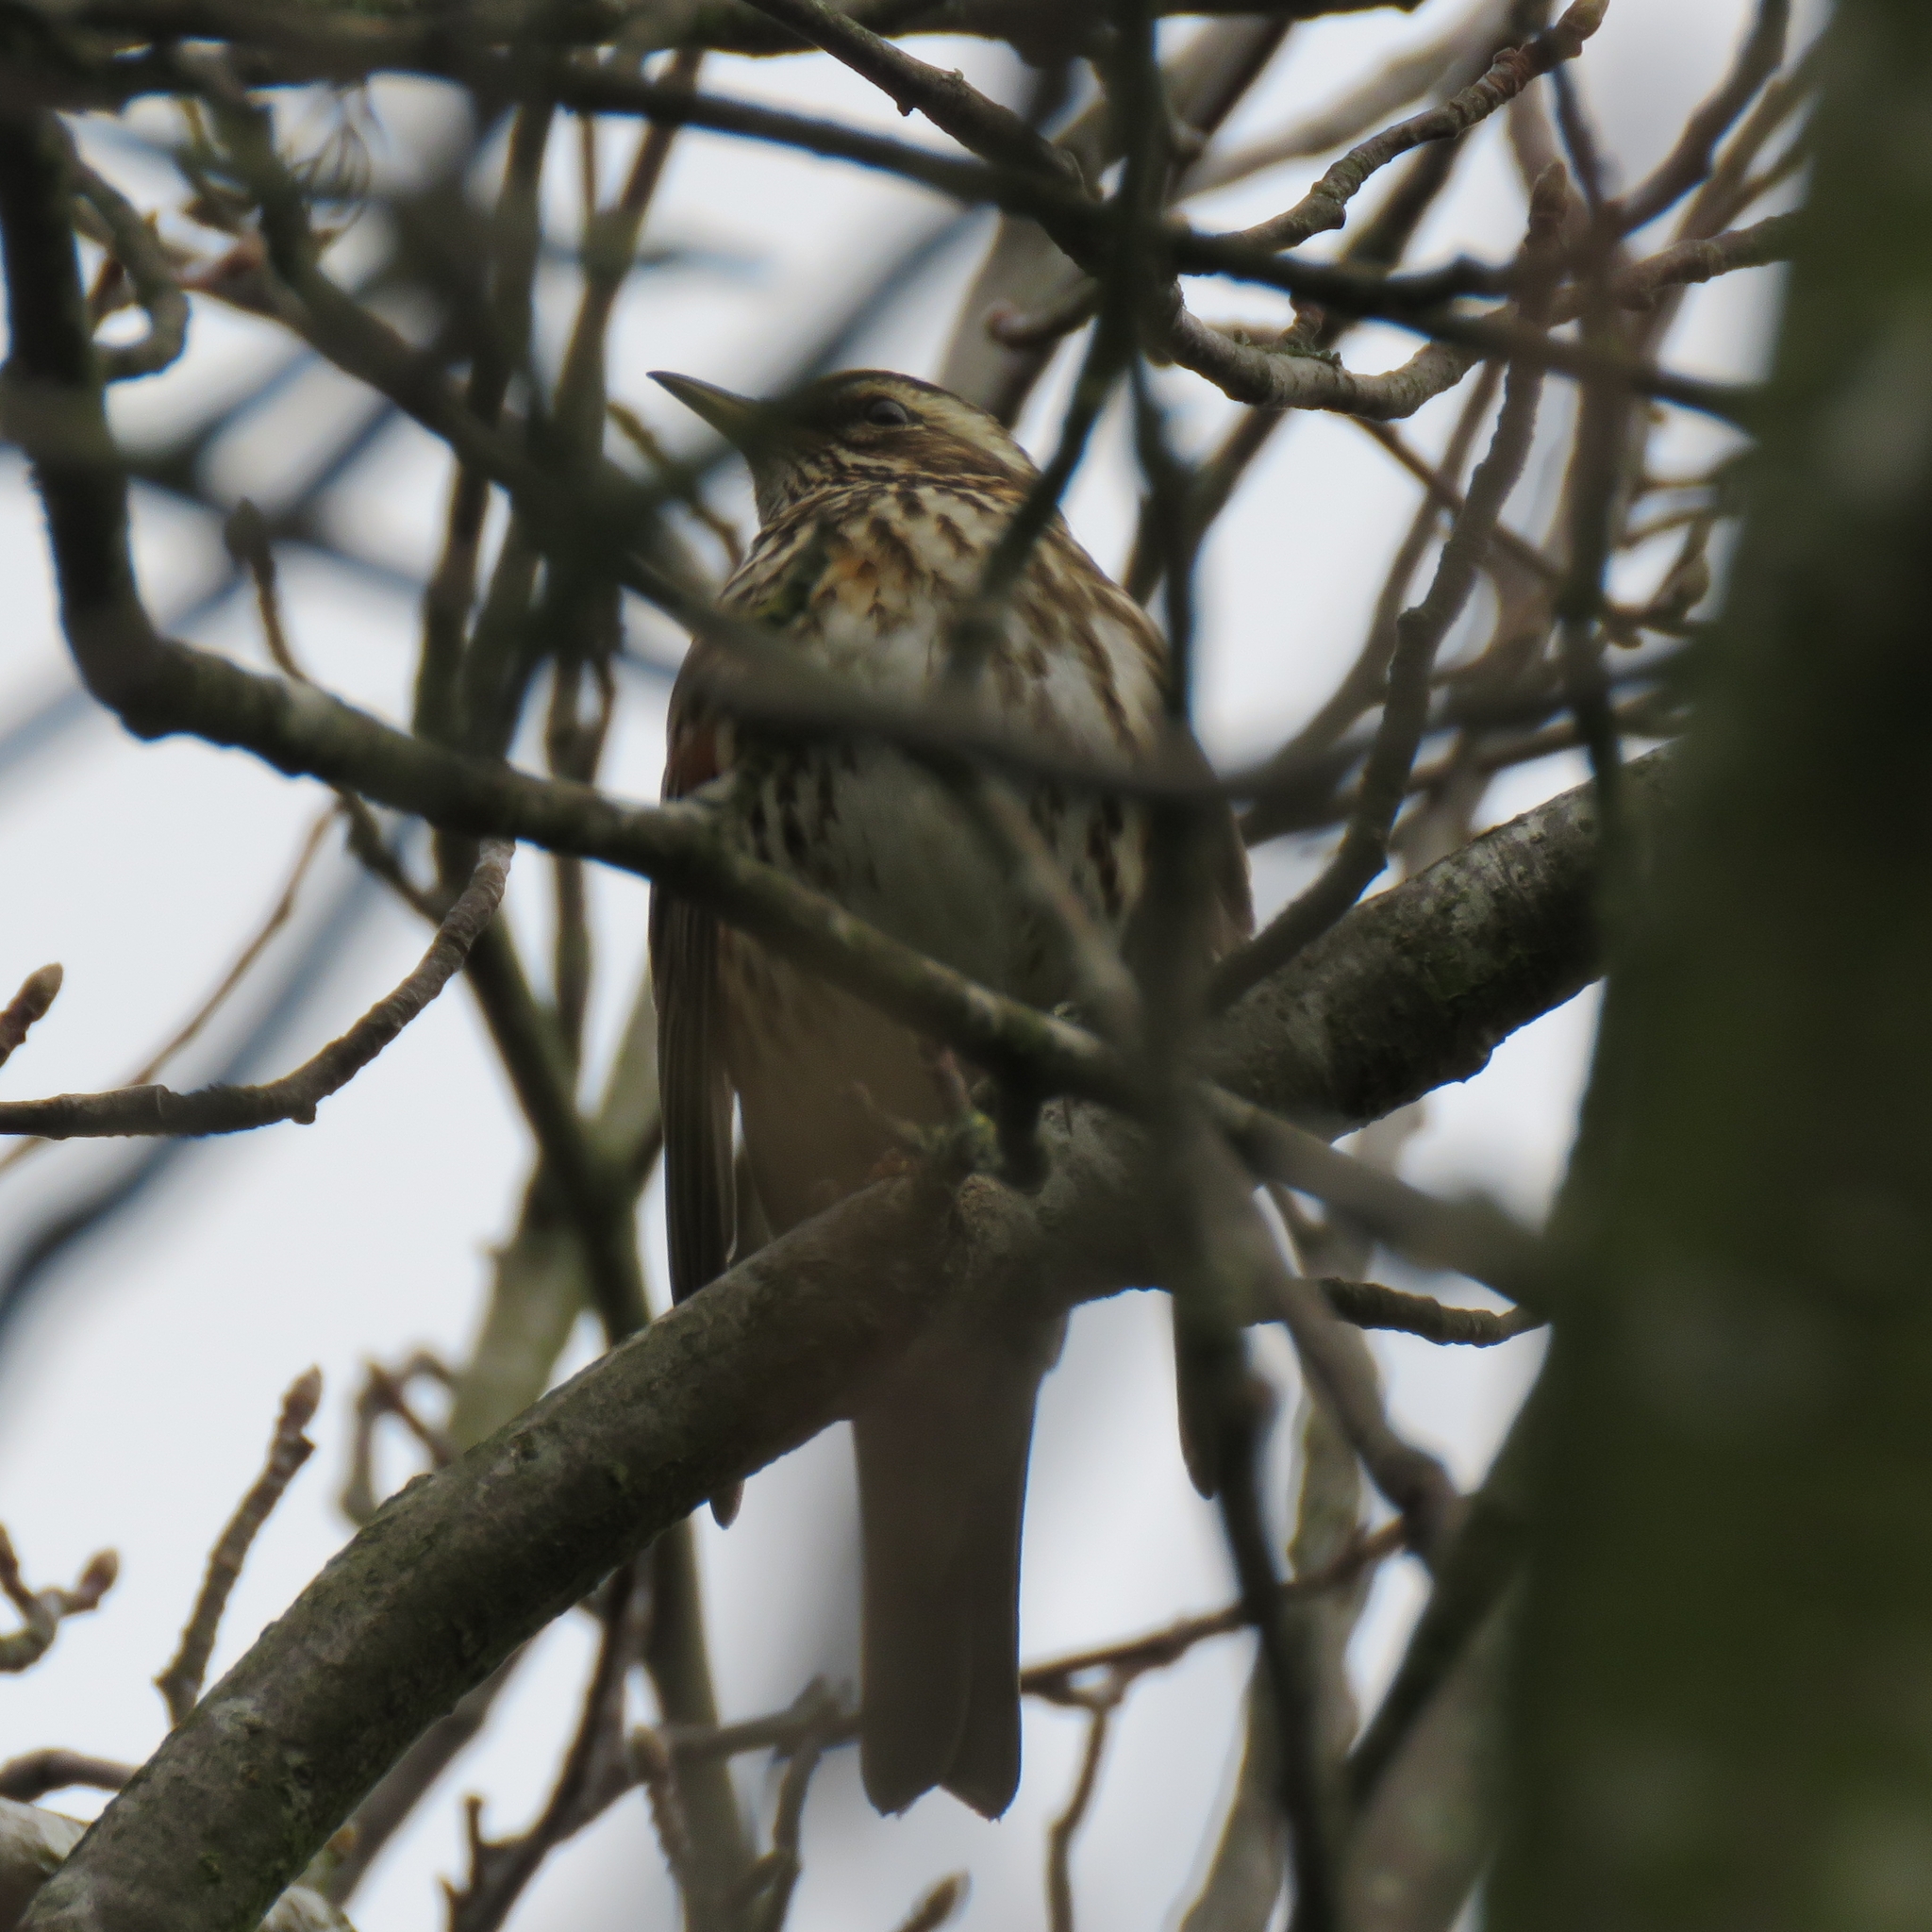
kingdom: Animalia
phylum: Chordata
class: Aves
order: Passeriformes
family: Turdidae
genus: Turdus
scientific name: Turdus iliacus
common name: Redwing
